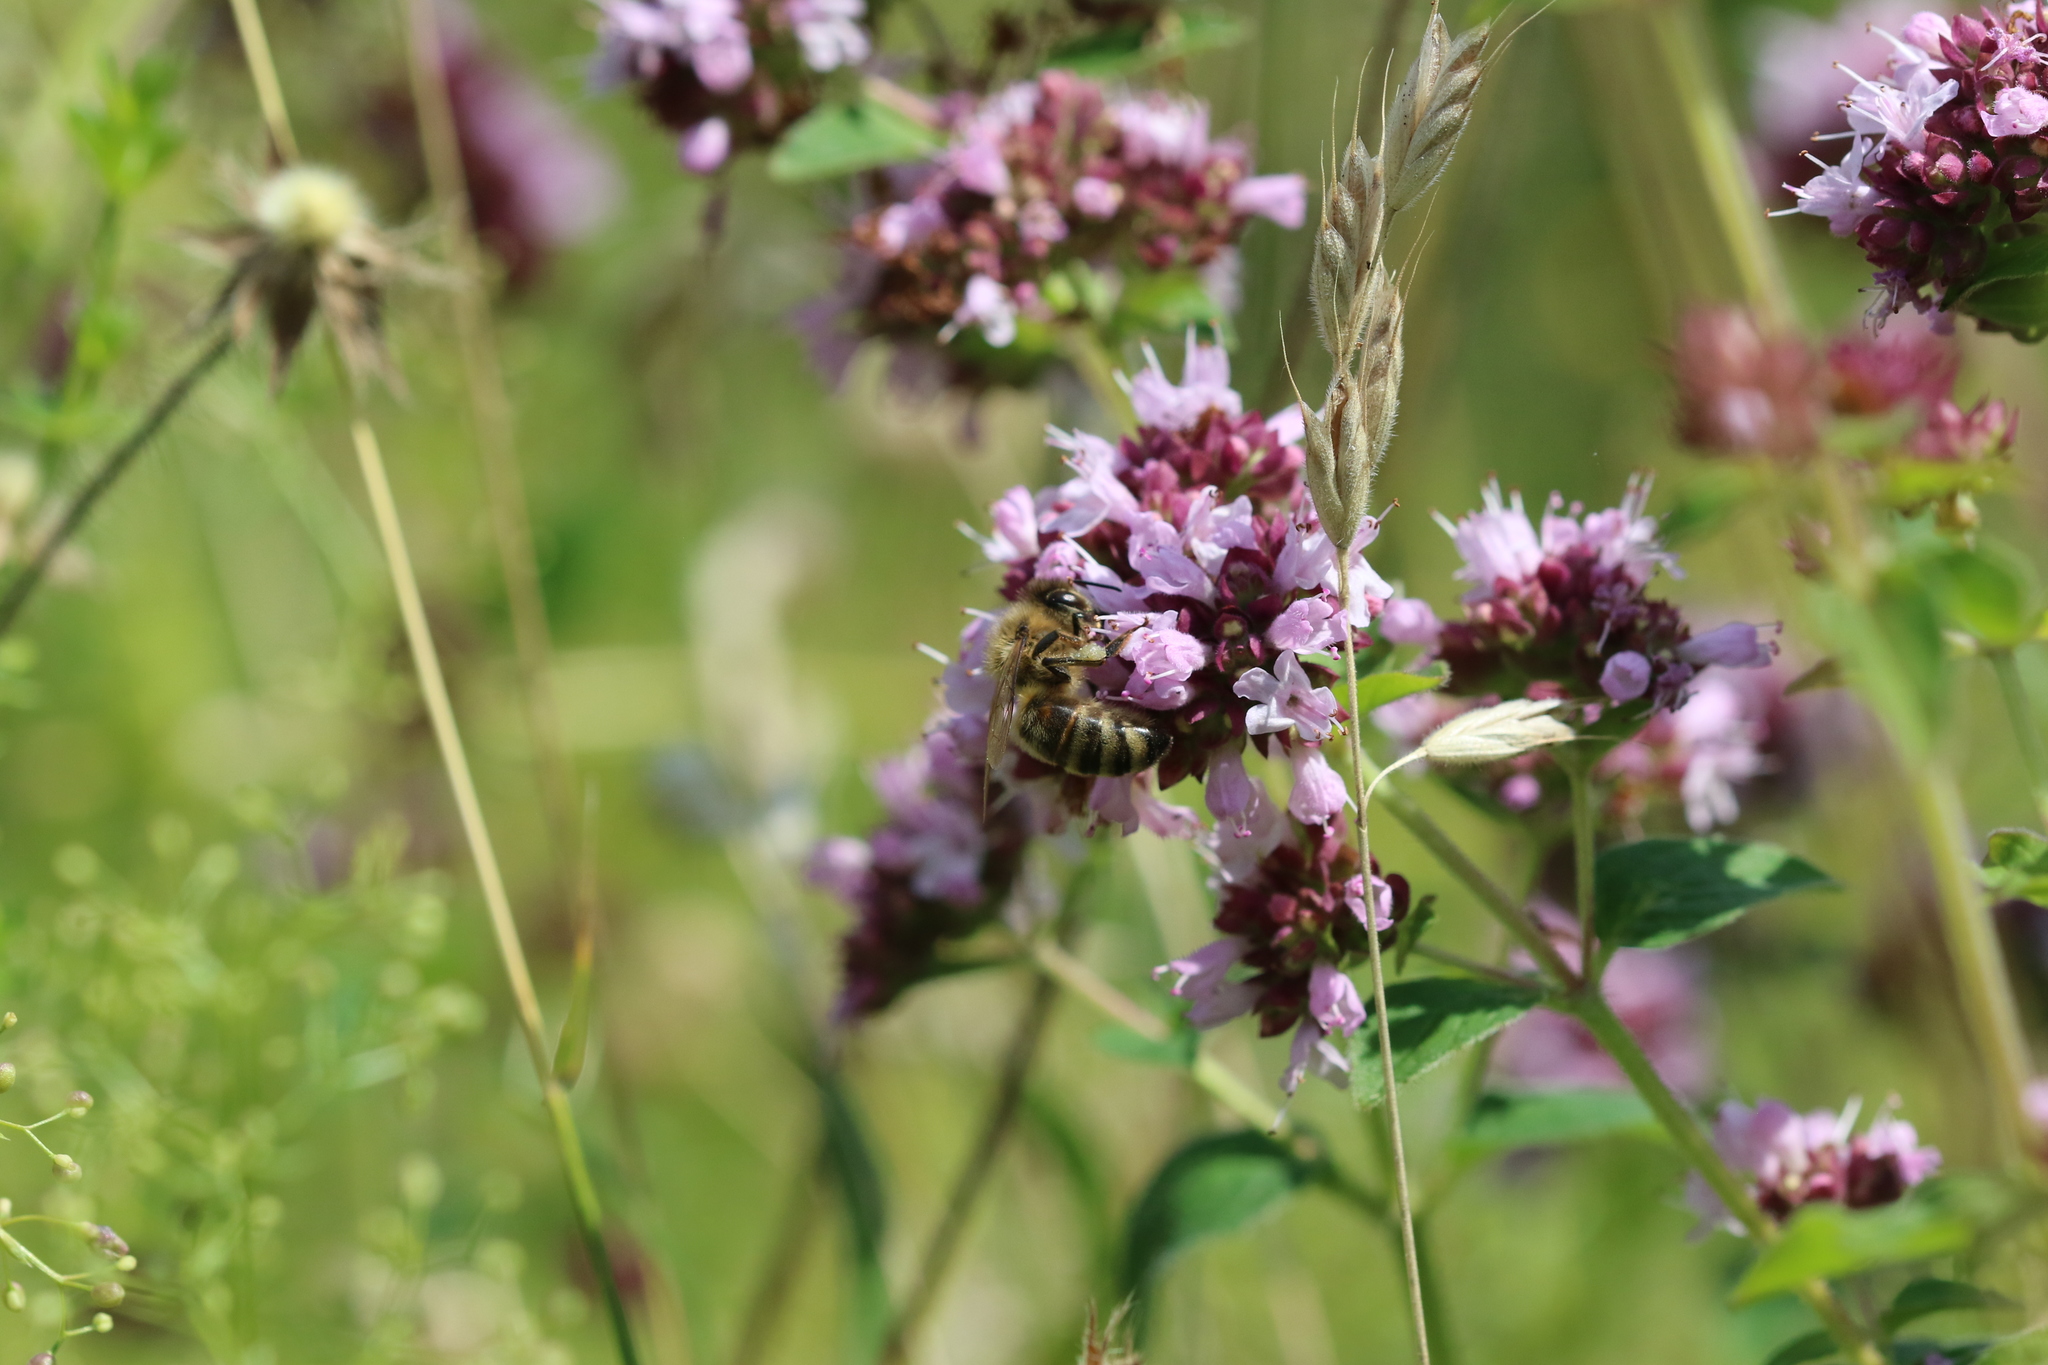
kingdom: Animalia
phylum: Arthropoda
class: Insecta
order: Hymenoptera
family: Apidae
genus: Apis
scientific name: Apis mellifera
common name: Honey bee
